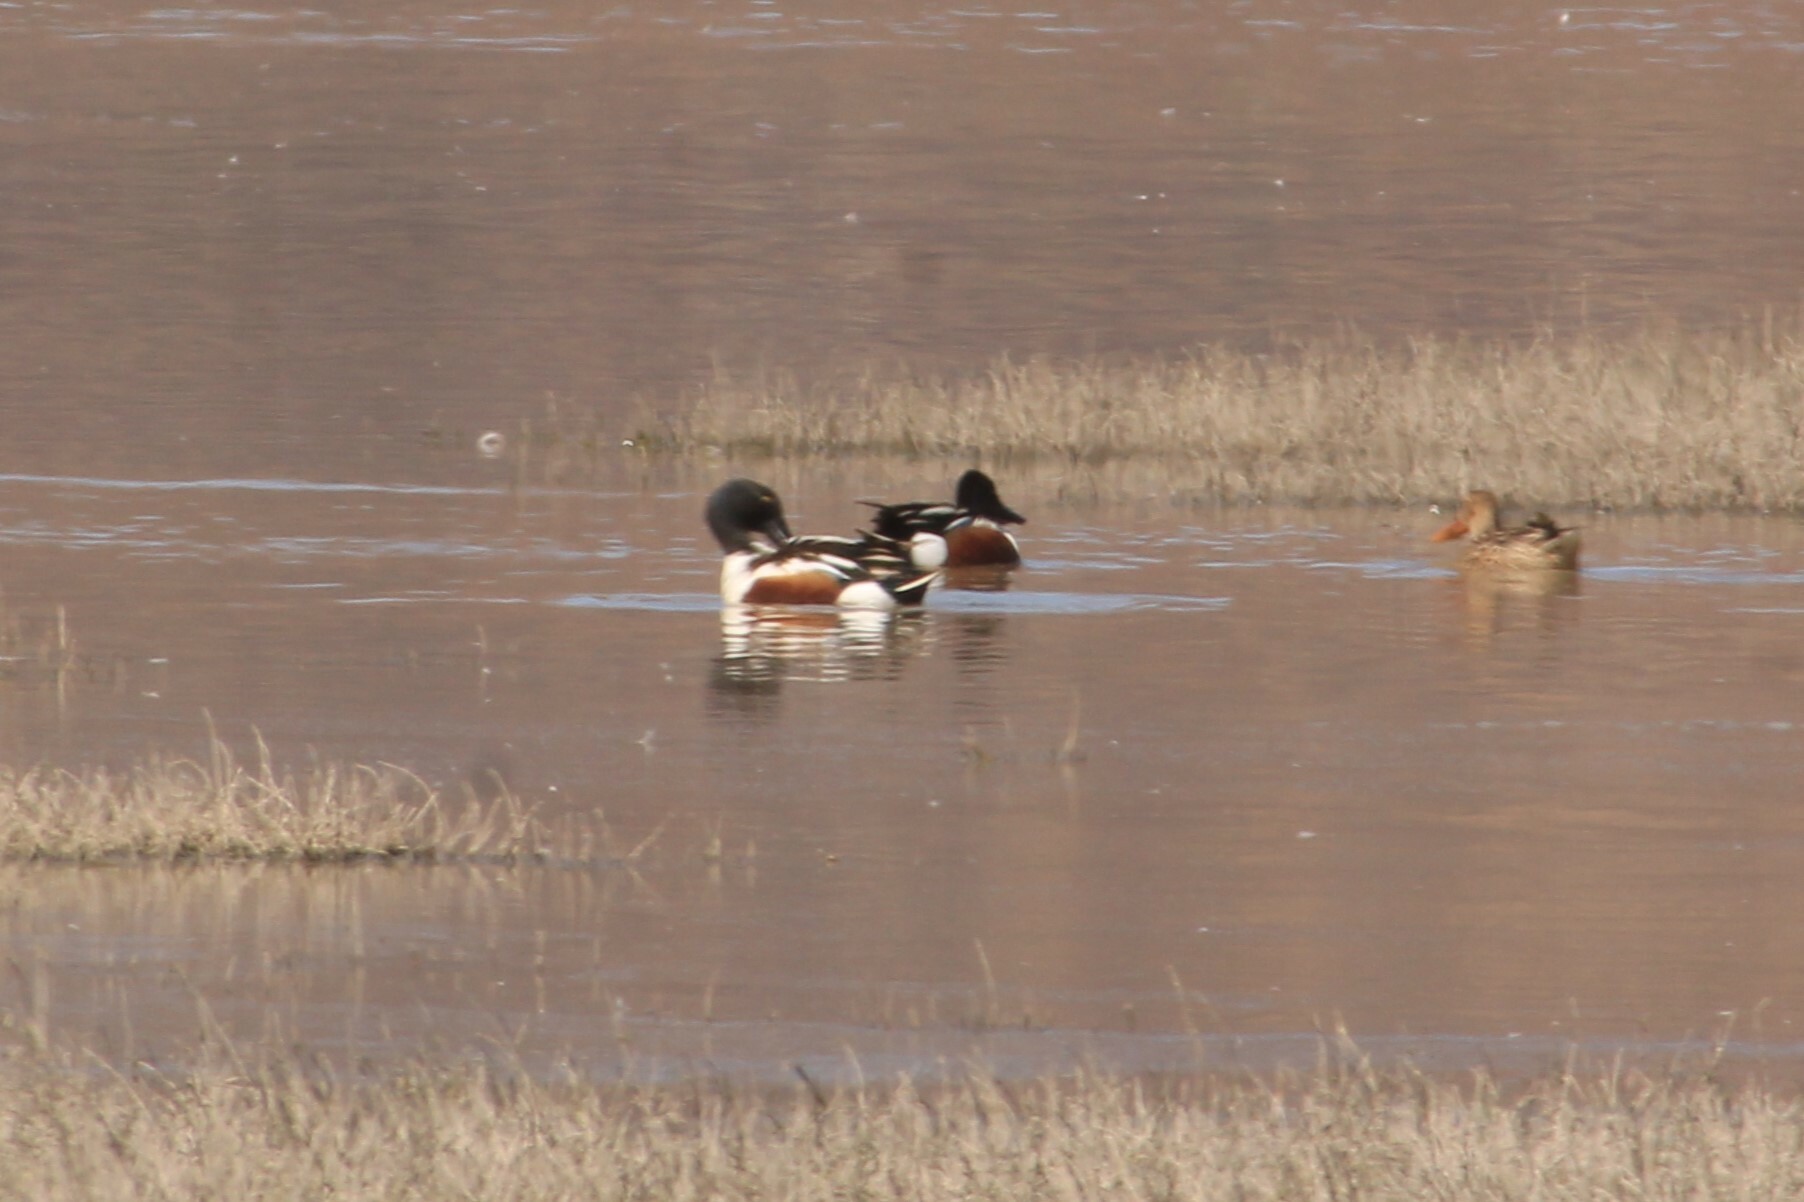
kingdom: Animalia
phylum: Chordata
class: Aves
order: Anseriformes
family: Anatidae
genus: Spatula
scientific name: Spatula clypeata
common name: Northern shoveler
